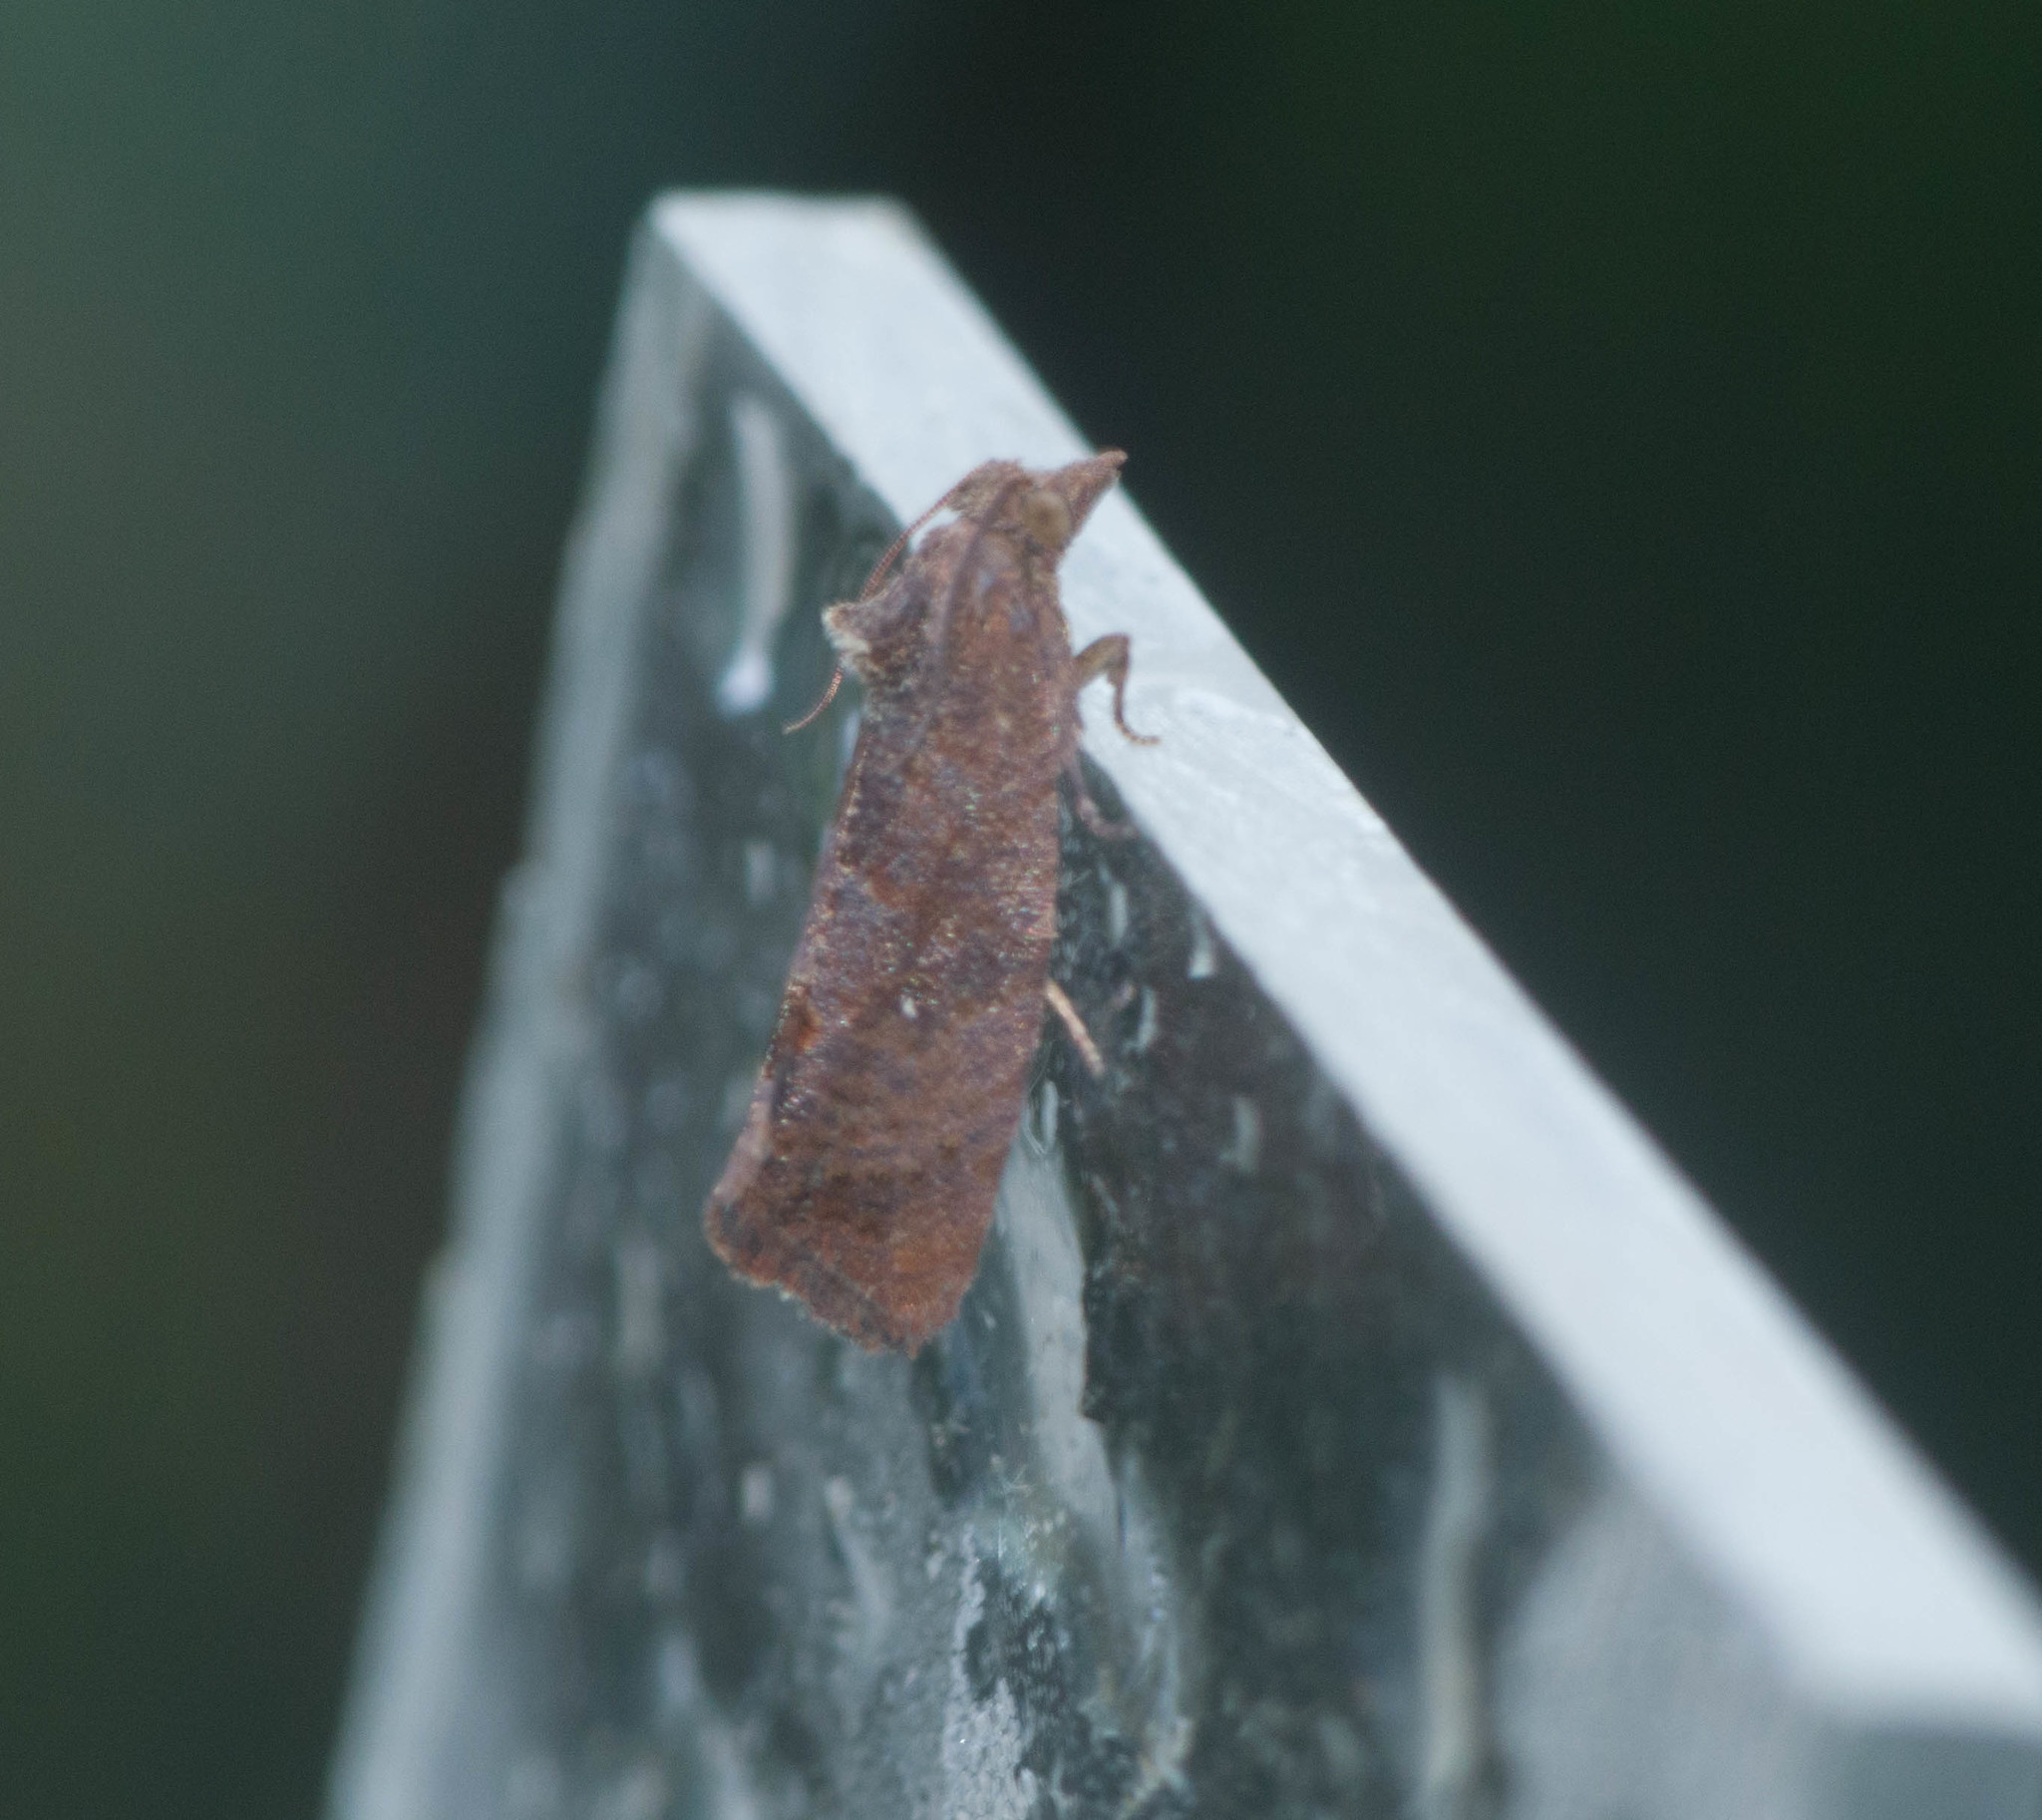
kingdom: Animalia
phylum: Arthropoda
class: Insecta
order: Lepidoptera
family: Tortricidae
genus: Cryptophlebia
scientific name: Cryptophlebia illepida
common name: Moth
